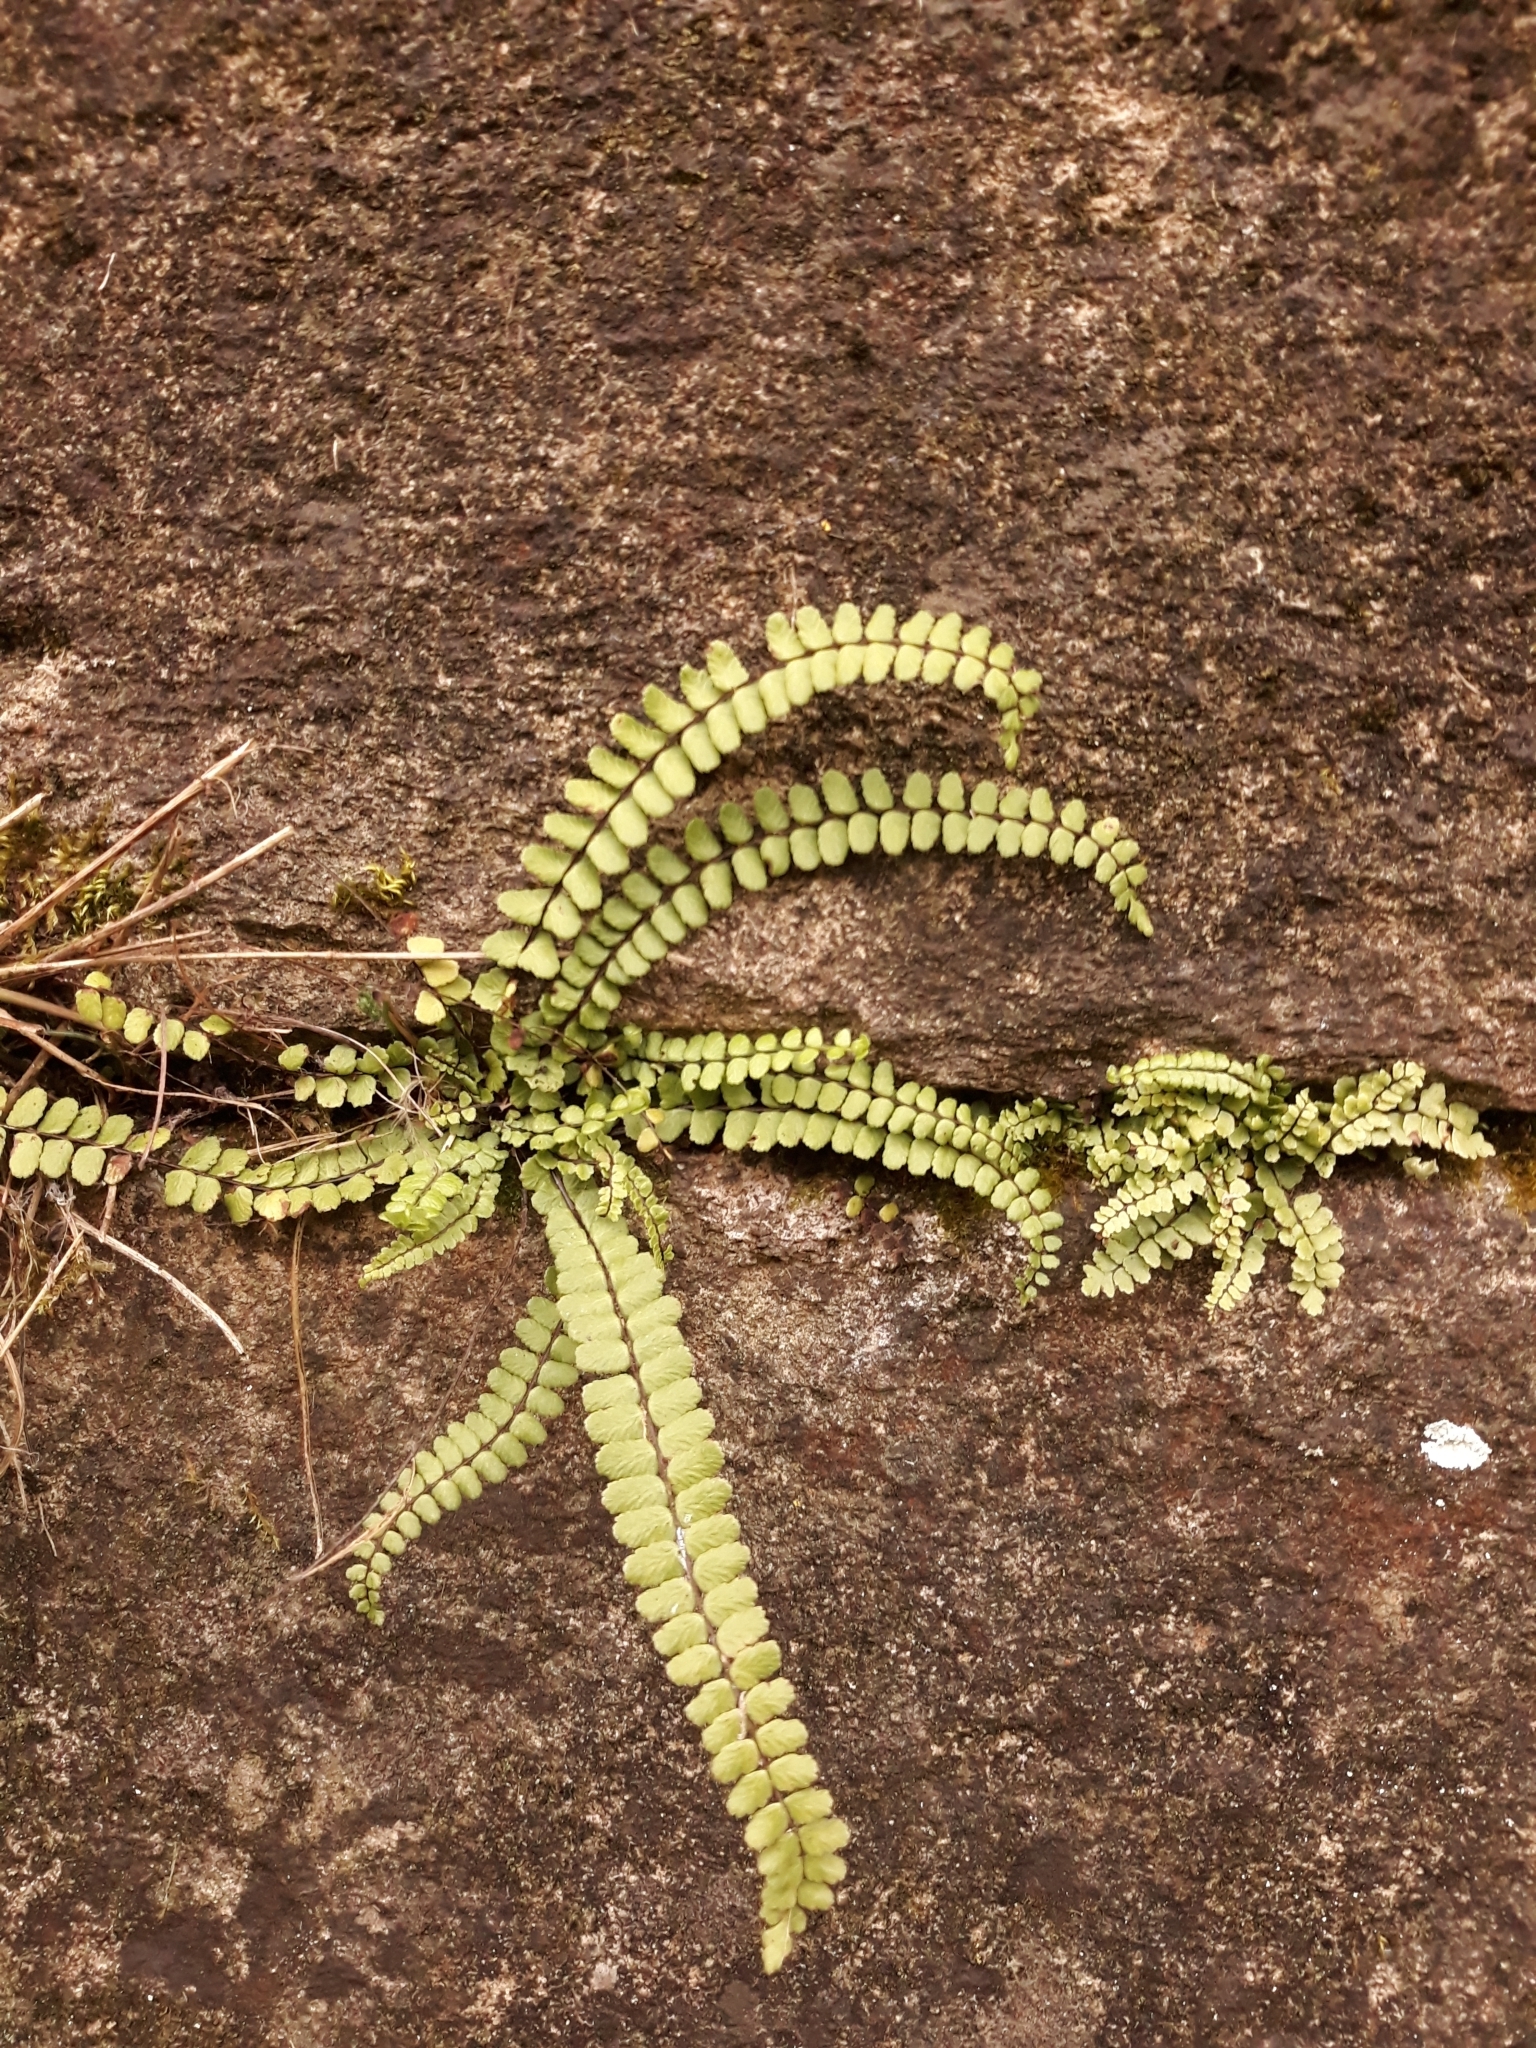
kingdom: Plantae
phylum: Tracheophyta
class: Polypodiopsida
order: Polypodiales
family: Aspleniaceae
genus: Asplenium
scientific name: Asplenium trichomanes
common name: Maidenhair spleenwort
